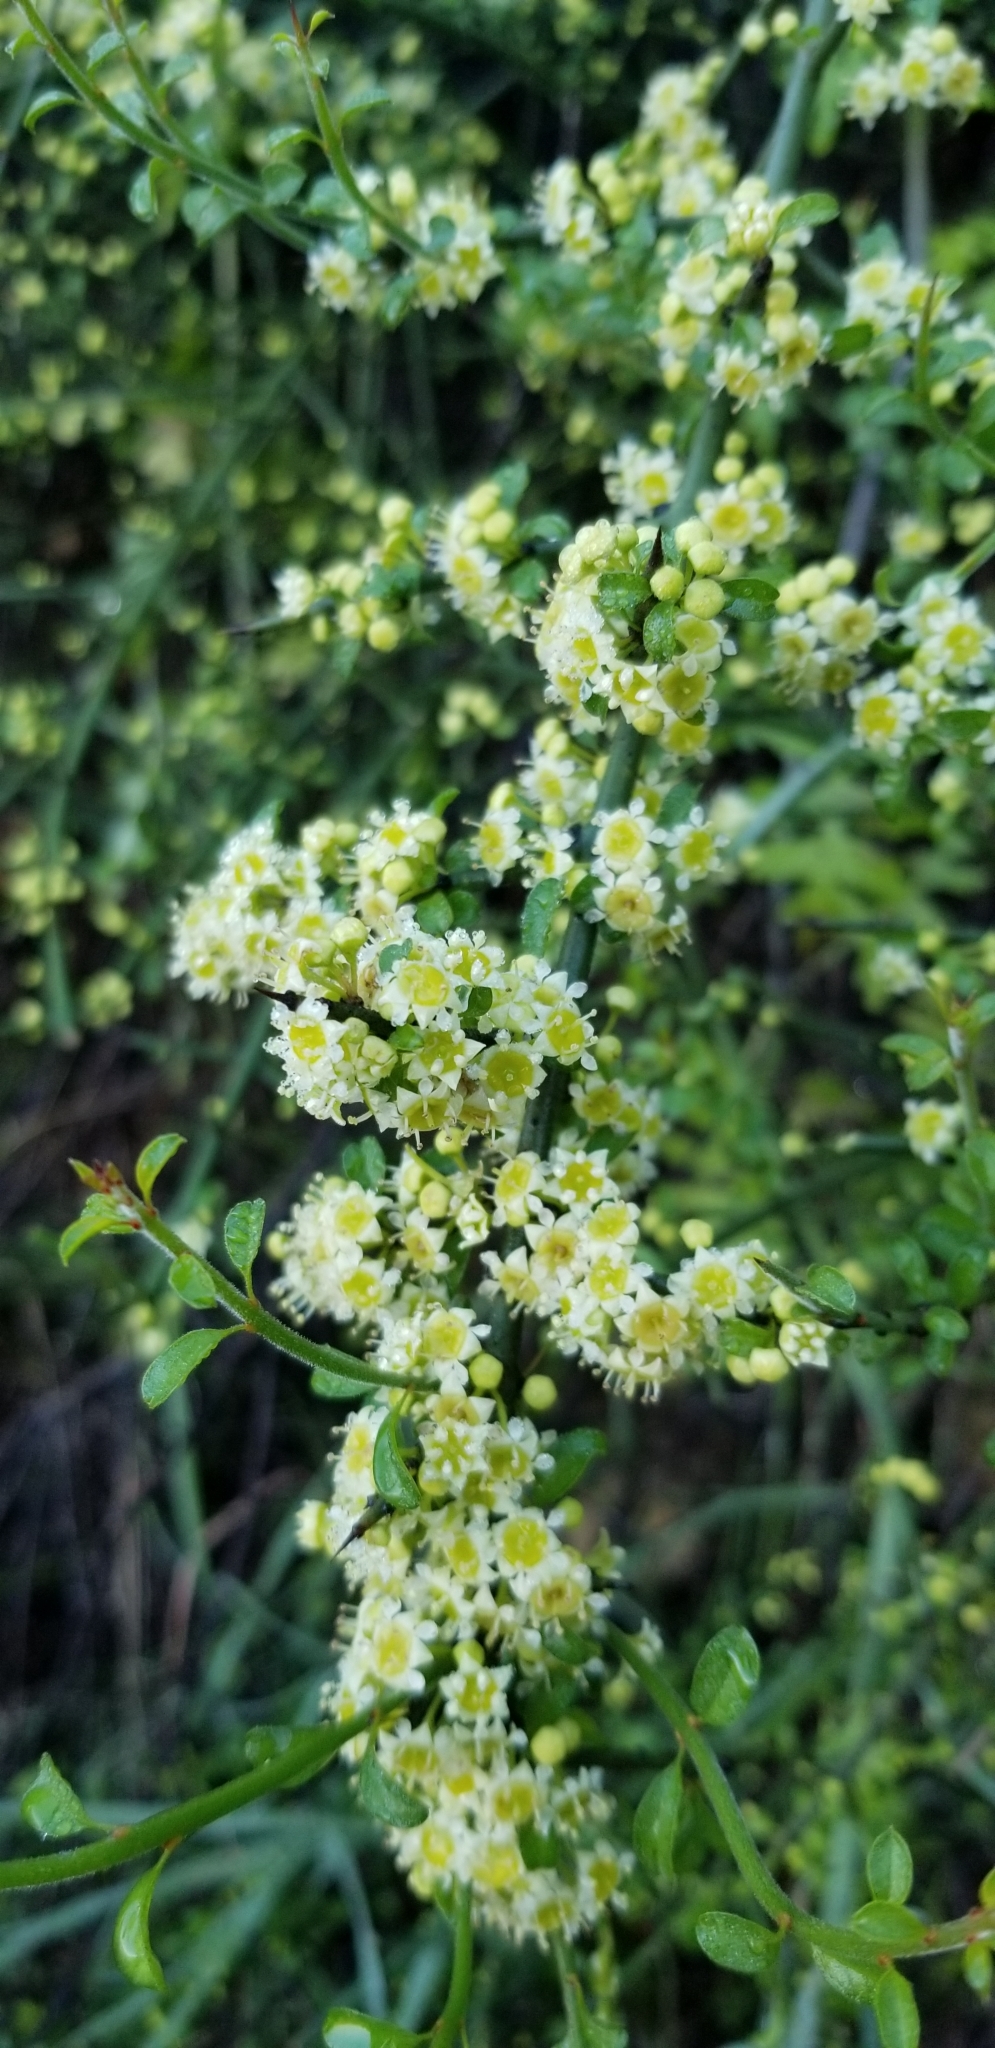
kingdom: Plantae
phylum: Tracheophyta
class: Magnoliopsida
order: Rosales
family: Rhamnaceae
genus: Adolphia
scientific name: Adolphia californica
